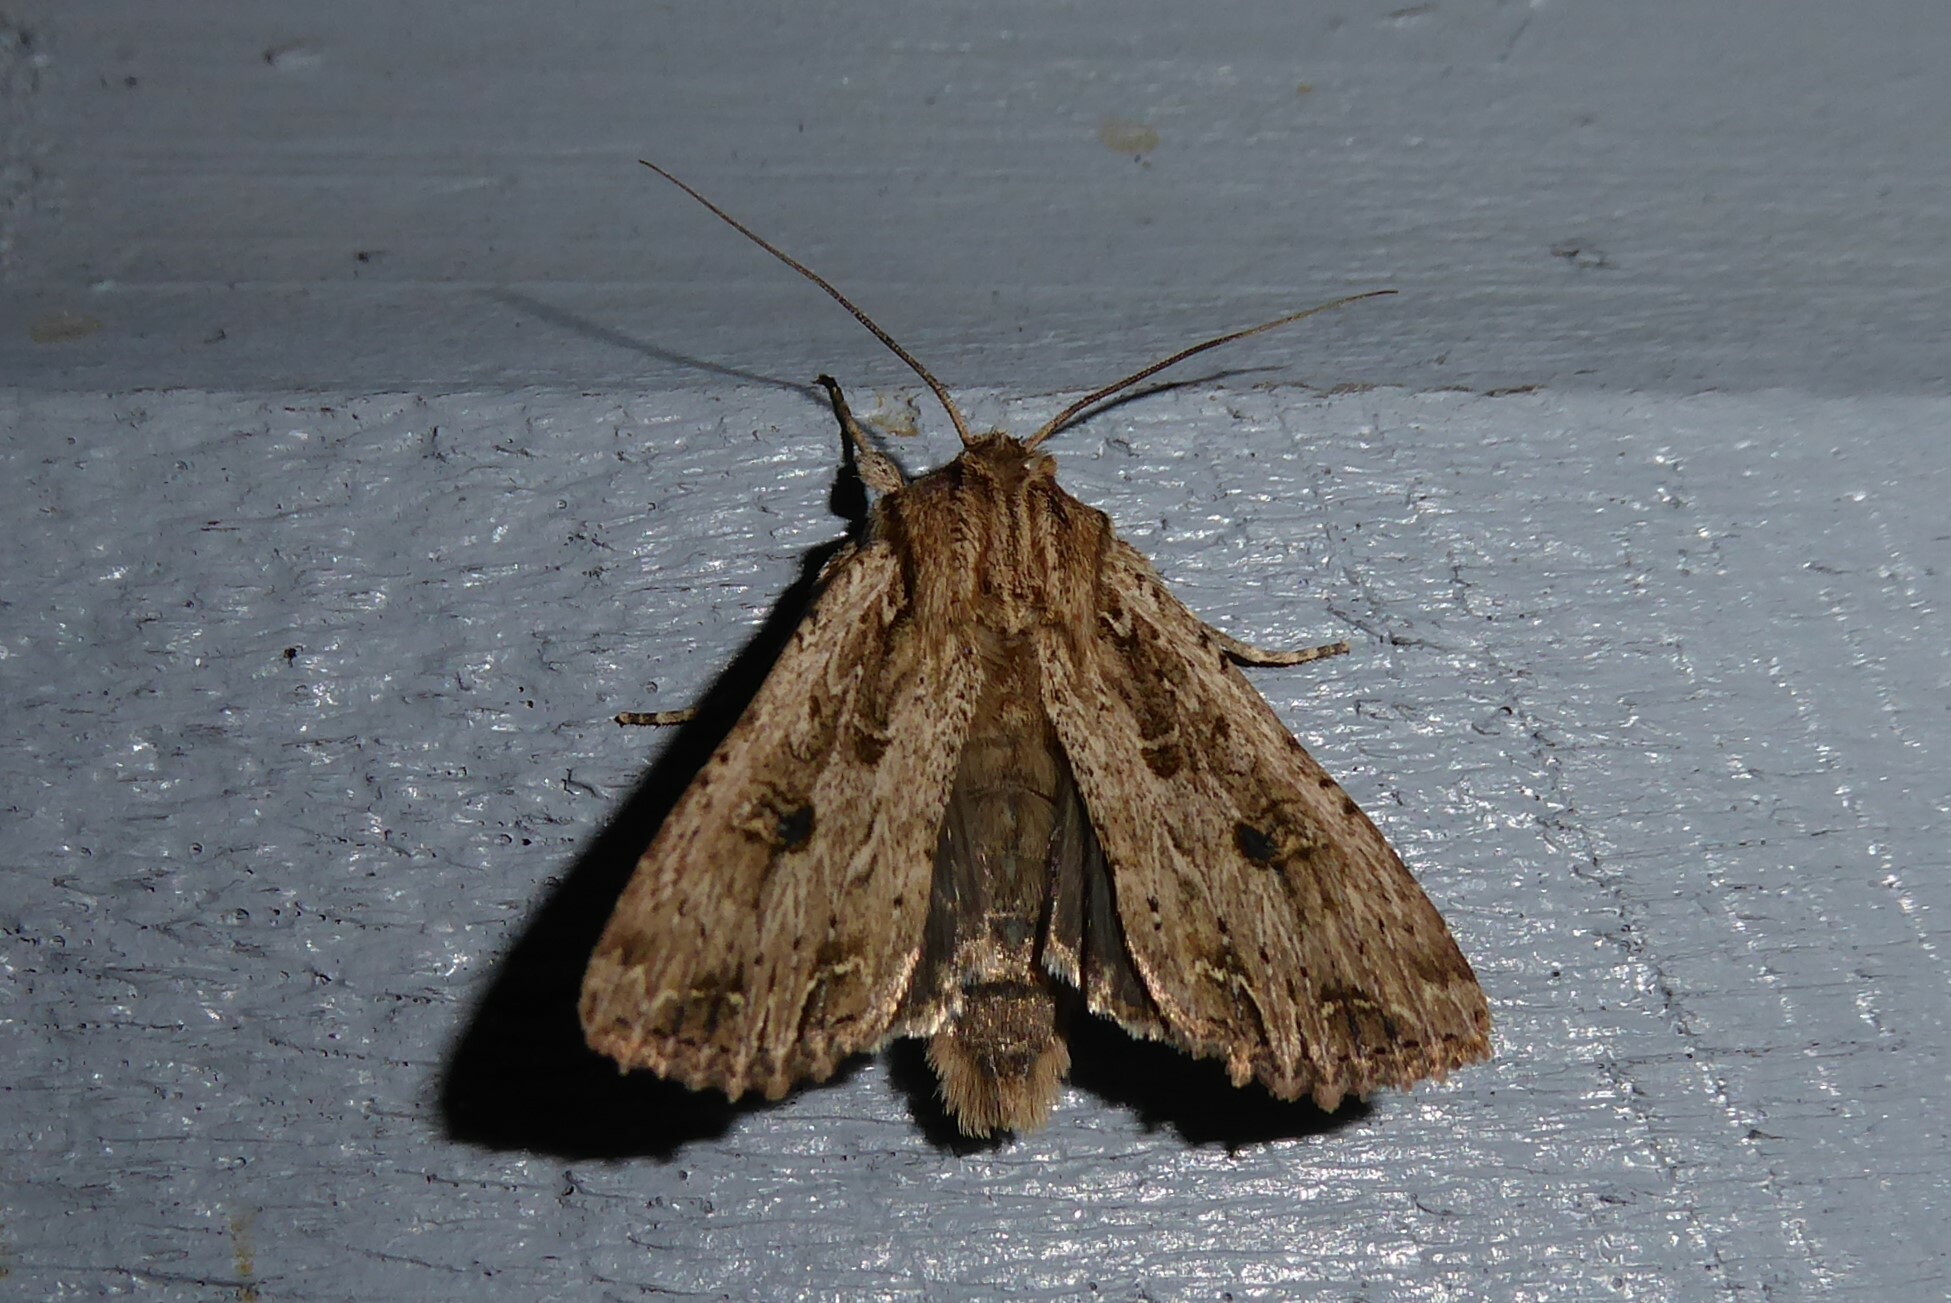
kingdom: Animalia
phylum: Arthropoda
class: Insecta
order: Lepidoptera
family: Noctuidae
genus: Ichneutica
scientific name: Ichneutica lignana
